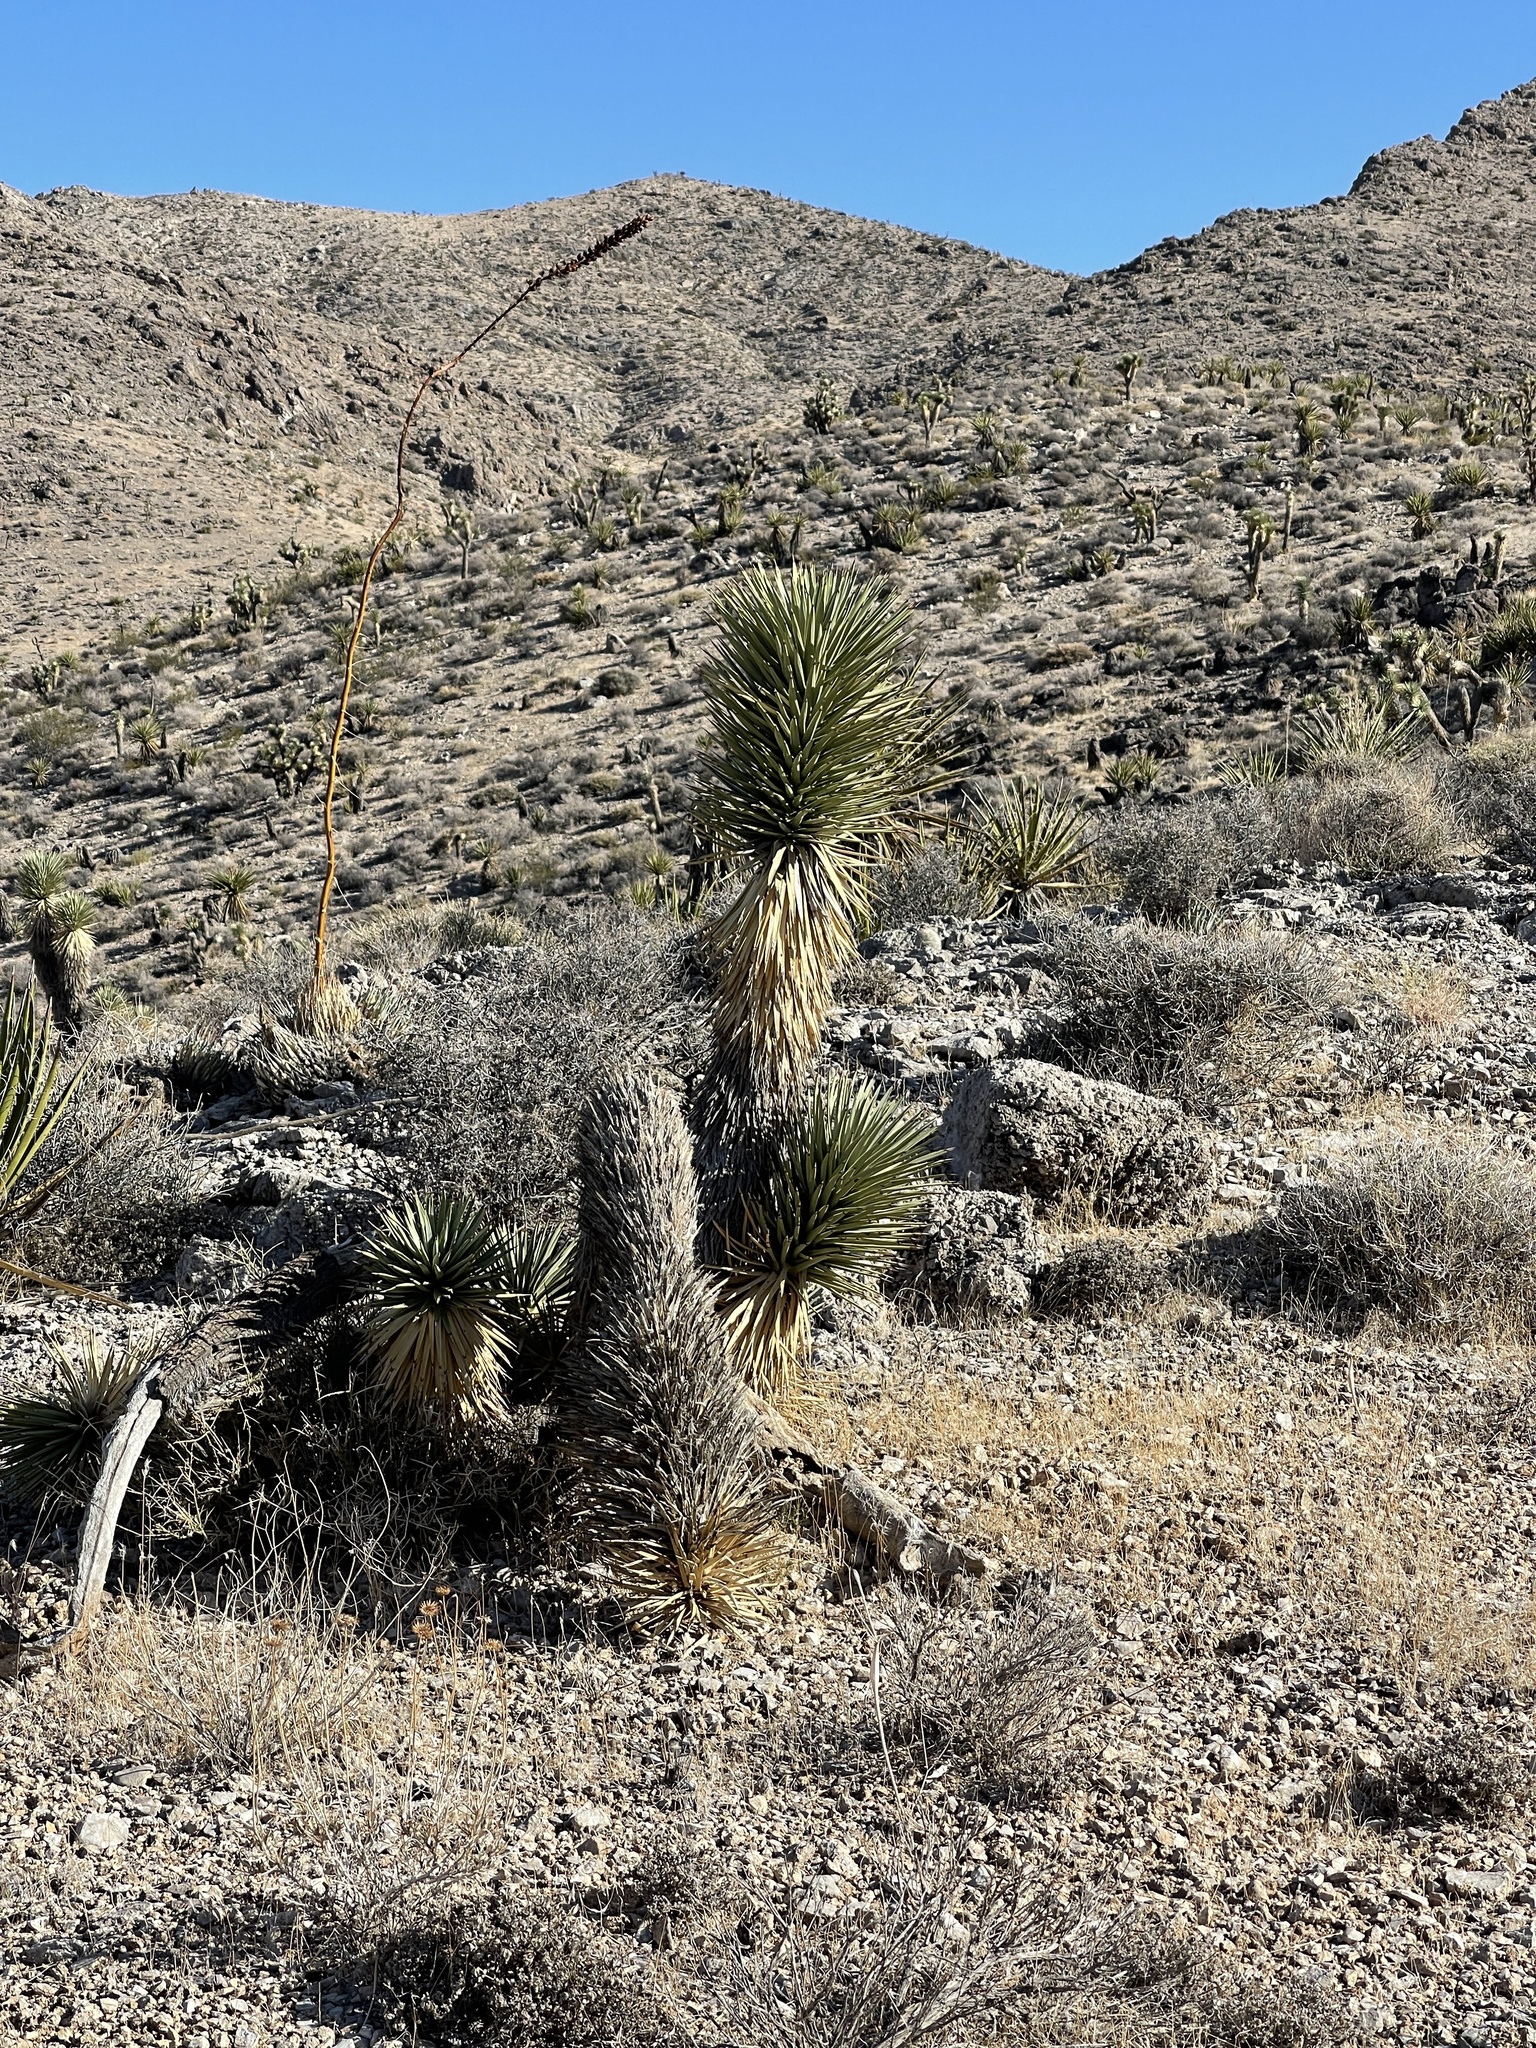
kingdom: Plantae
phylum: Tracheophyta
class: Liliopsida
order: Asparagales
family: Asparagaceae
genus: Yucca
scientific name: Yucca brevifolia
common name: Joshua tree
